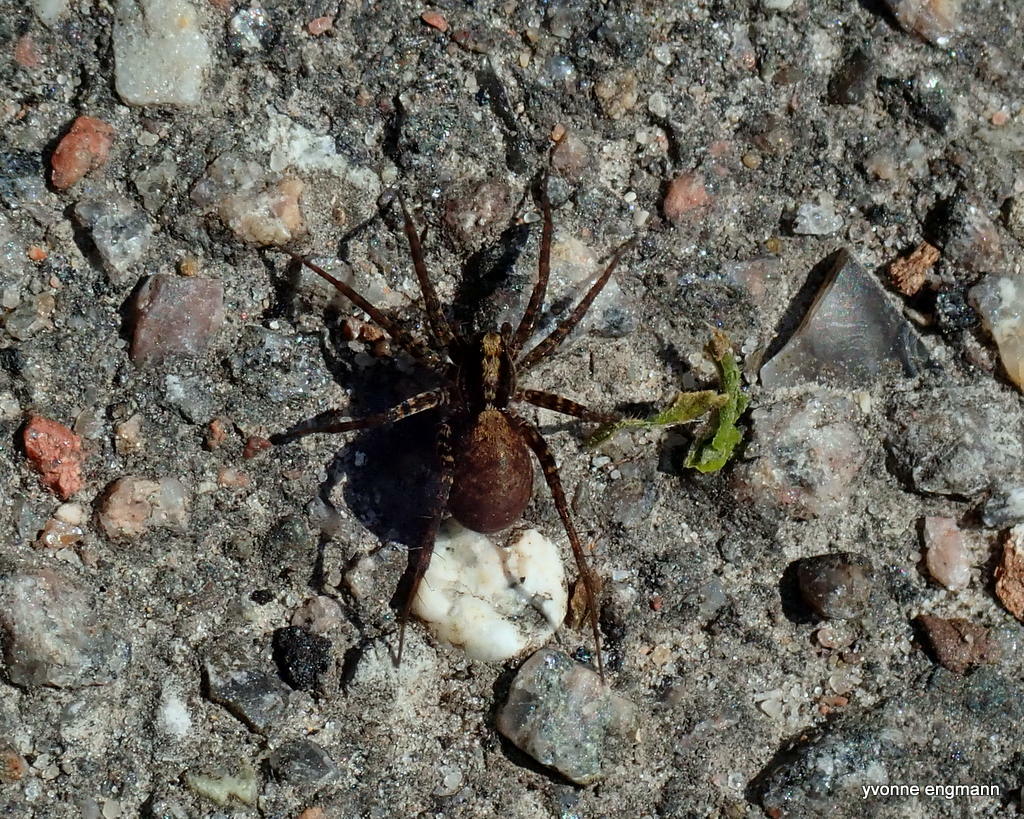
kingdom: Animalia
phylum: Arthropoda
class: Arachnida
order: Araneae
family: Lycosidae
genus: Pardosa
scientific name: Pardosa
